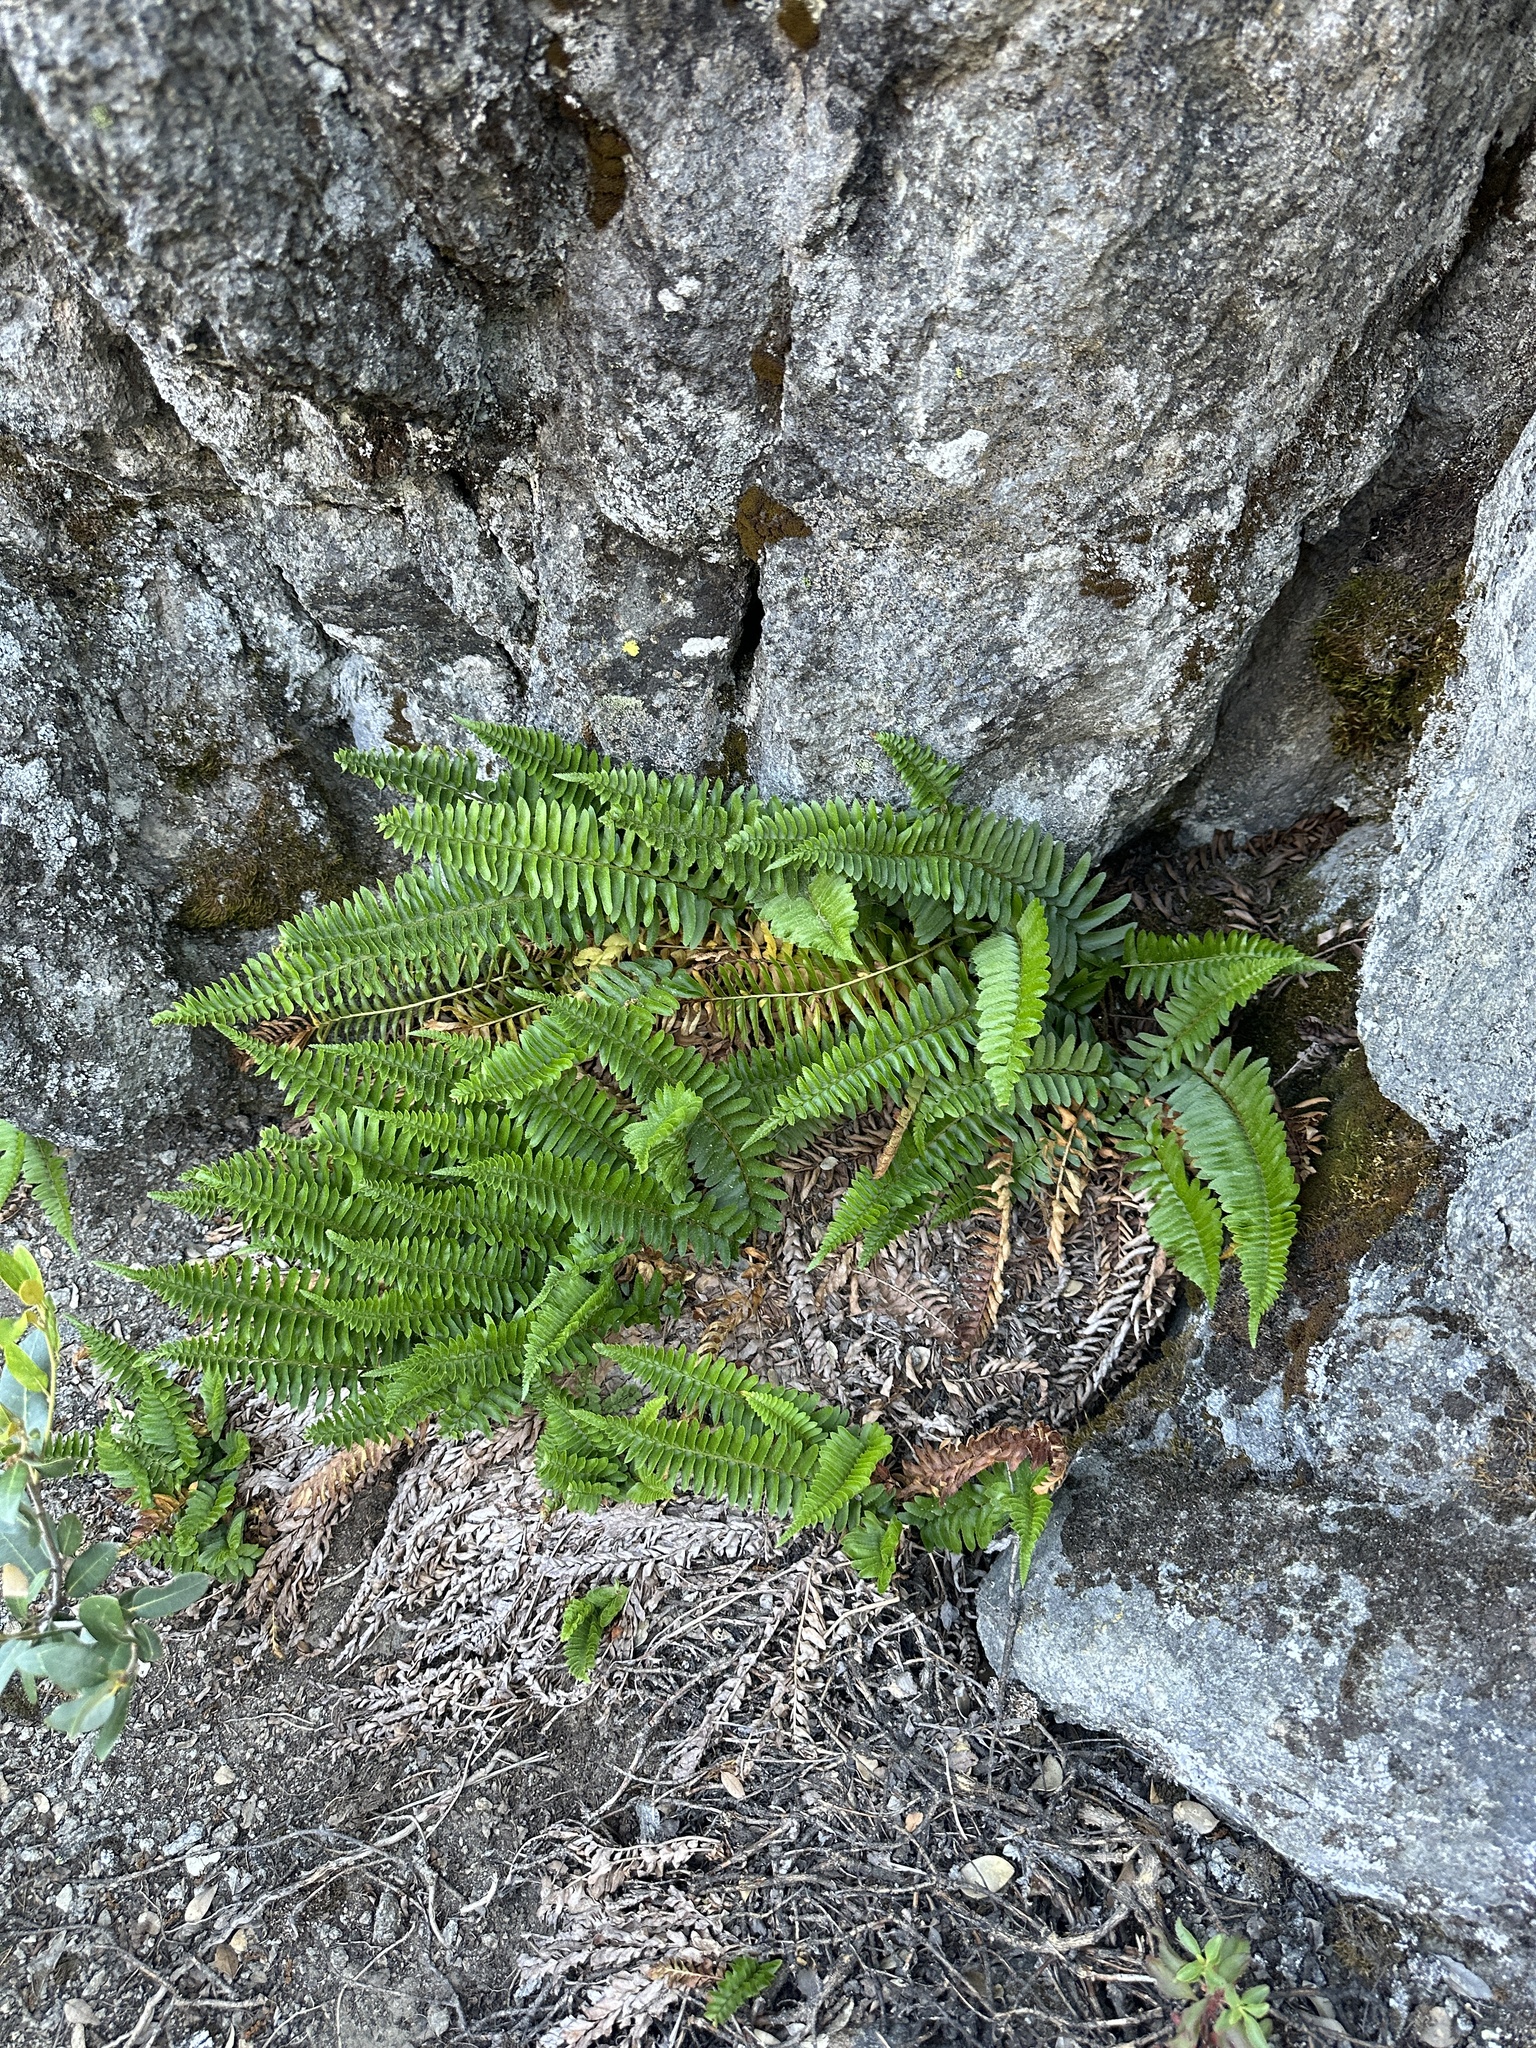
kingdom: Plantae
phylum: Tracheophyta
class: Polypodiopsida
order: Polypodiales
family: Dryopteridaceae
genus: Polystichum
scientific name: Polystichum imbricans
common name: Dwarf western sword fern
